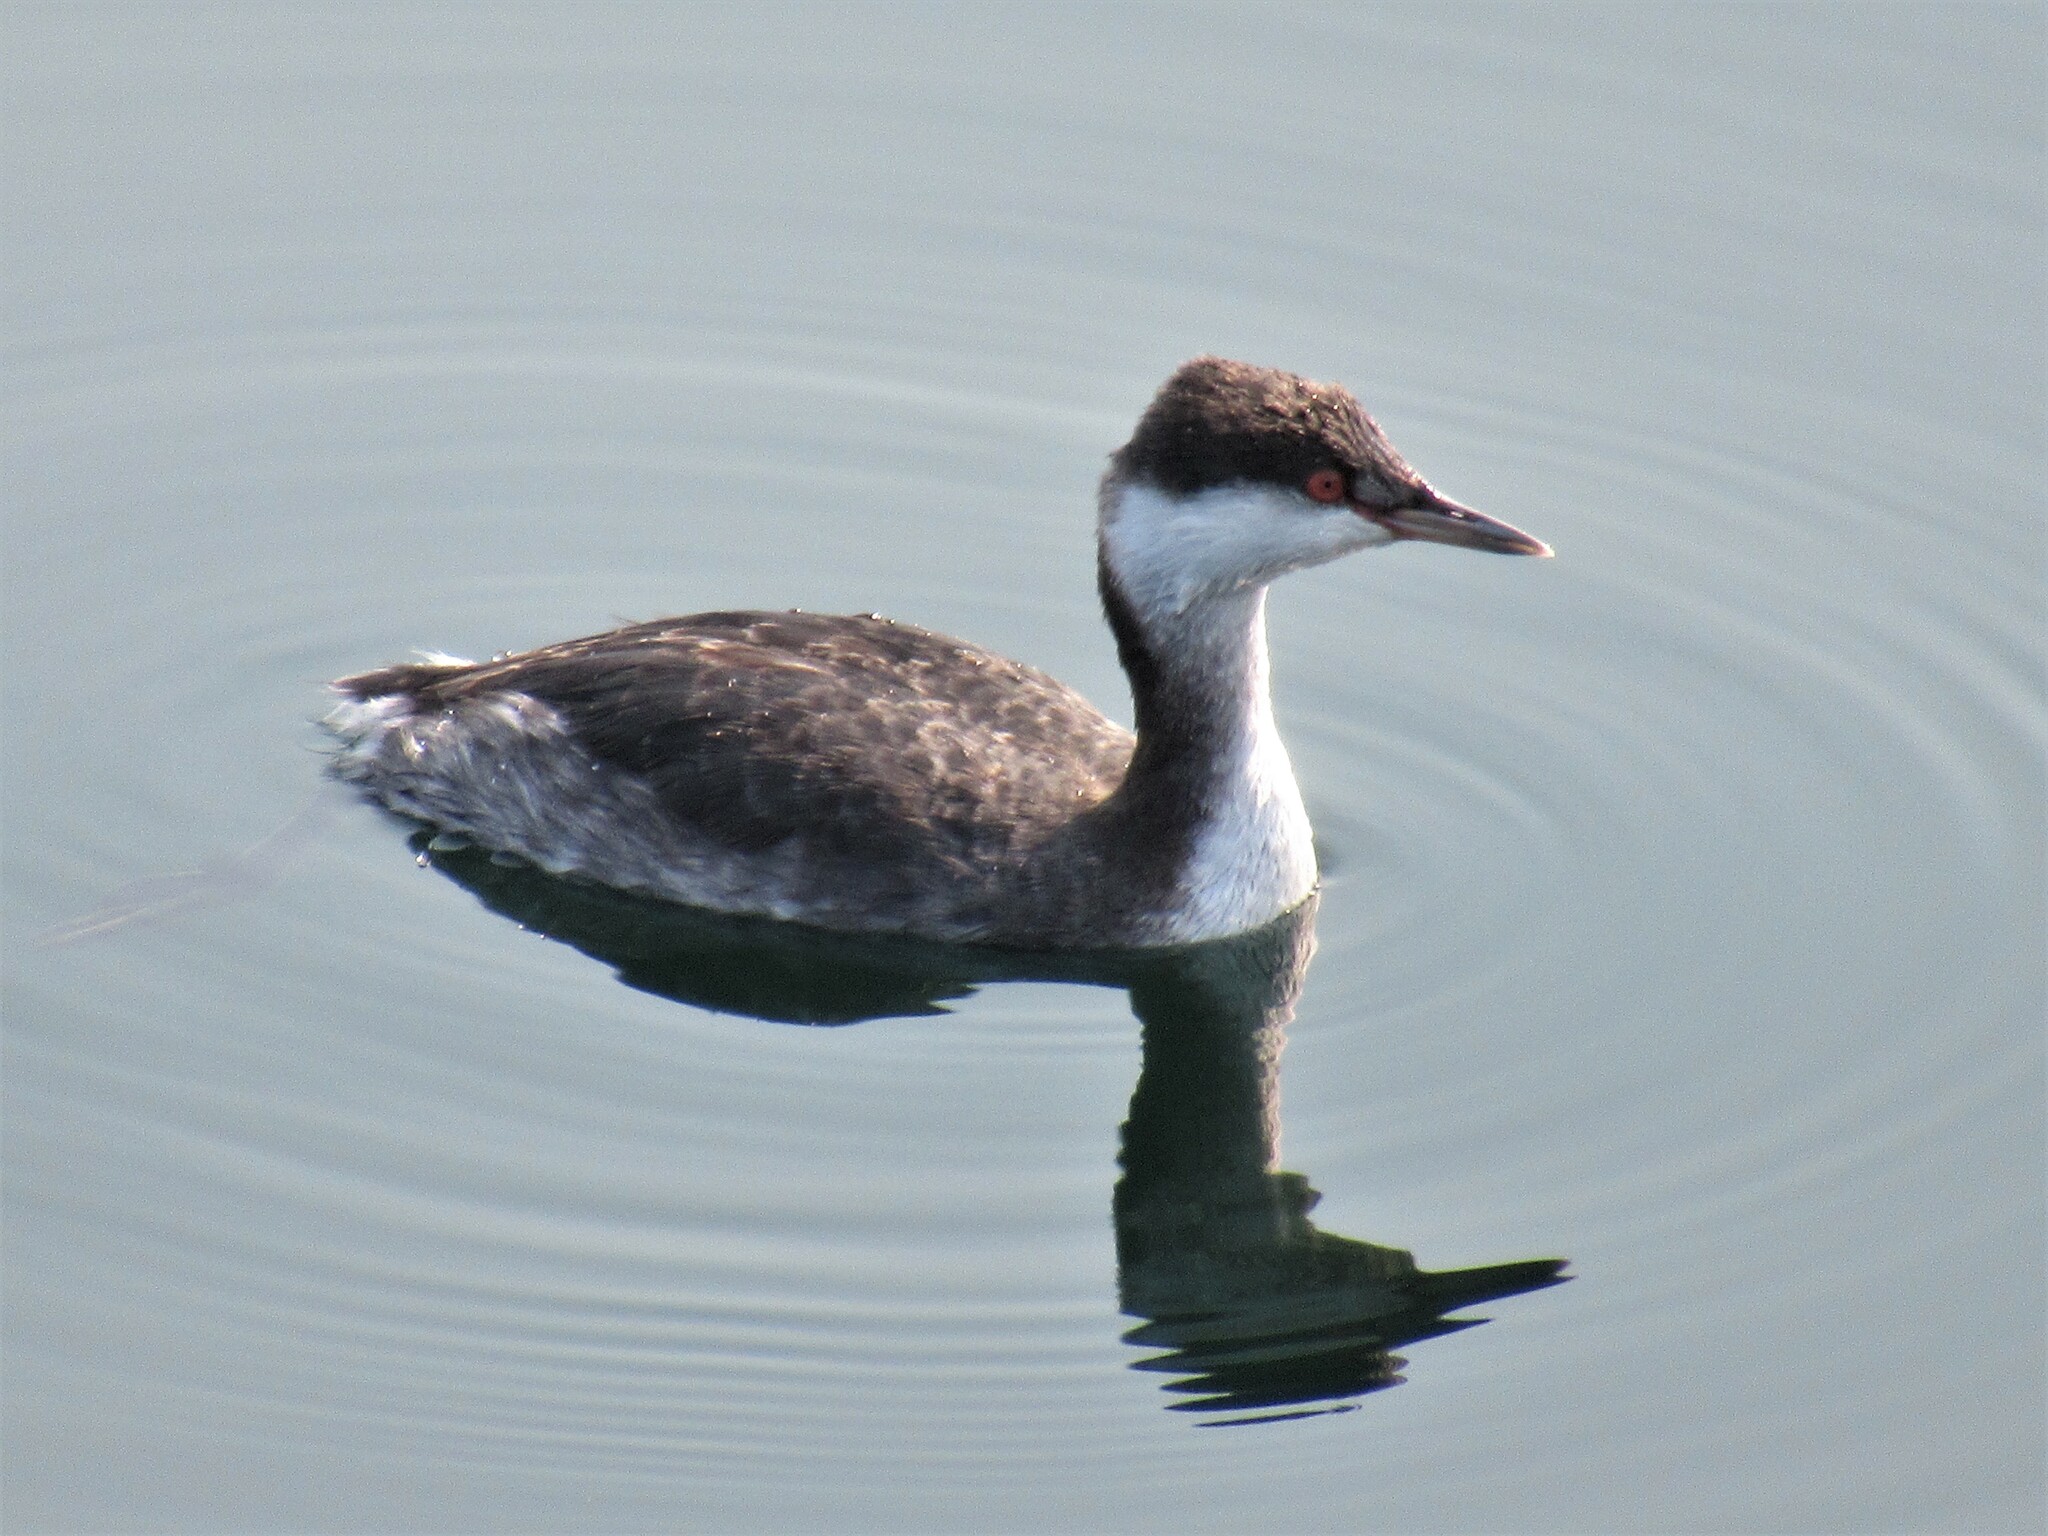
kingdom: Animalia
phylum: Chordata
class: Aves
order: Podicipediformes
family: Podicipedidae
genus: Podiceps
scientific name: Podiceps auritus
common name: Horned grebe
